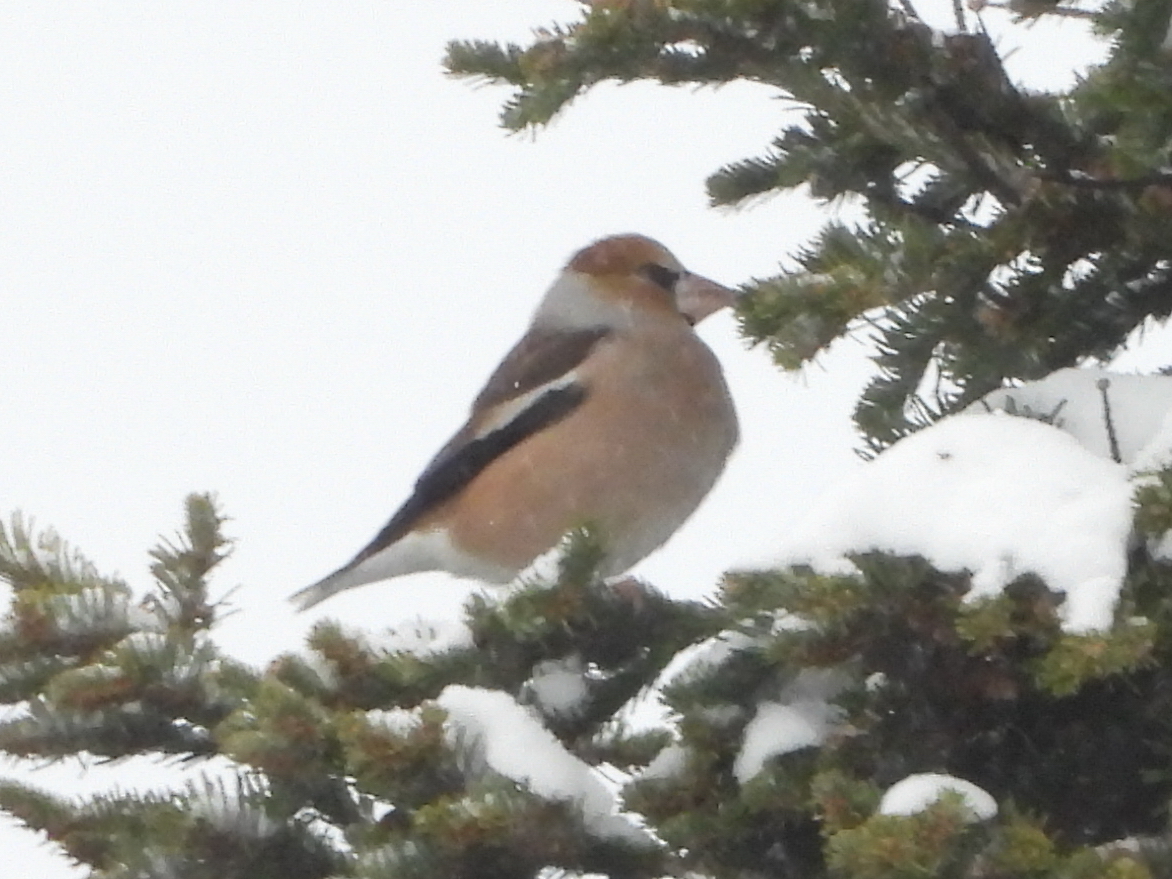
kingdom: Animalia
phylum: Chordata
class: Aves
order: Passeriformes
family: Fringillidae
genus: Coccothraustes
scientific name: Coccothraustes coccothraustes
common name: Hawfinch
